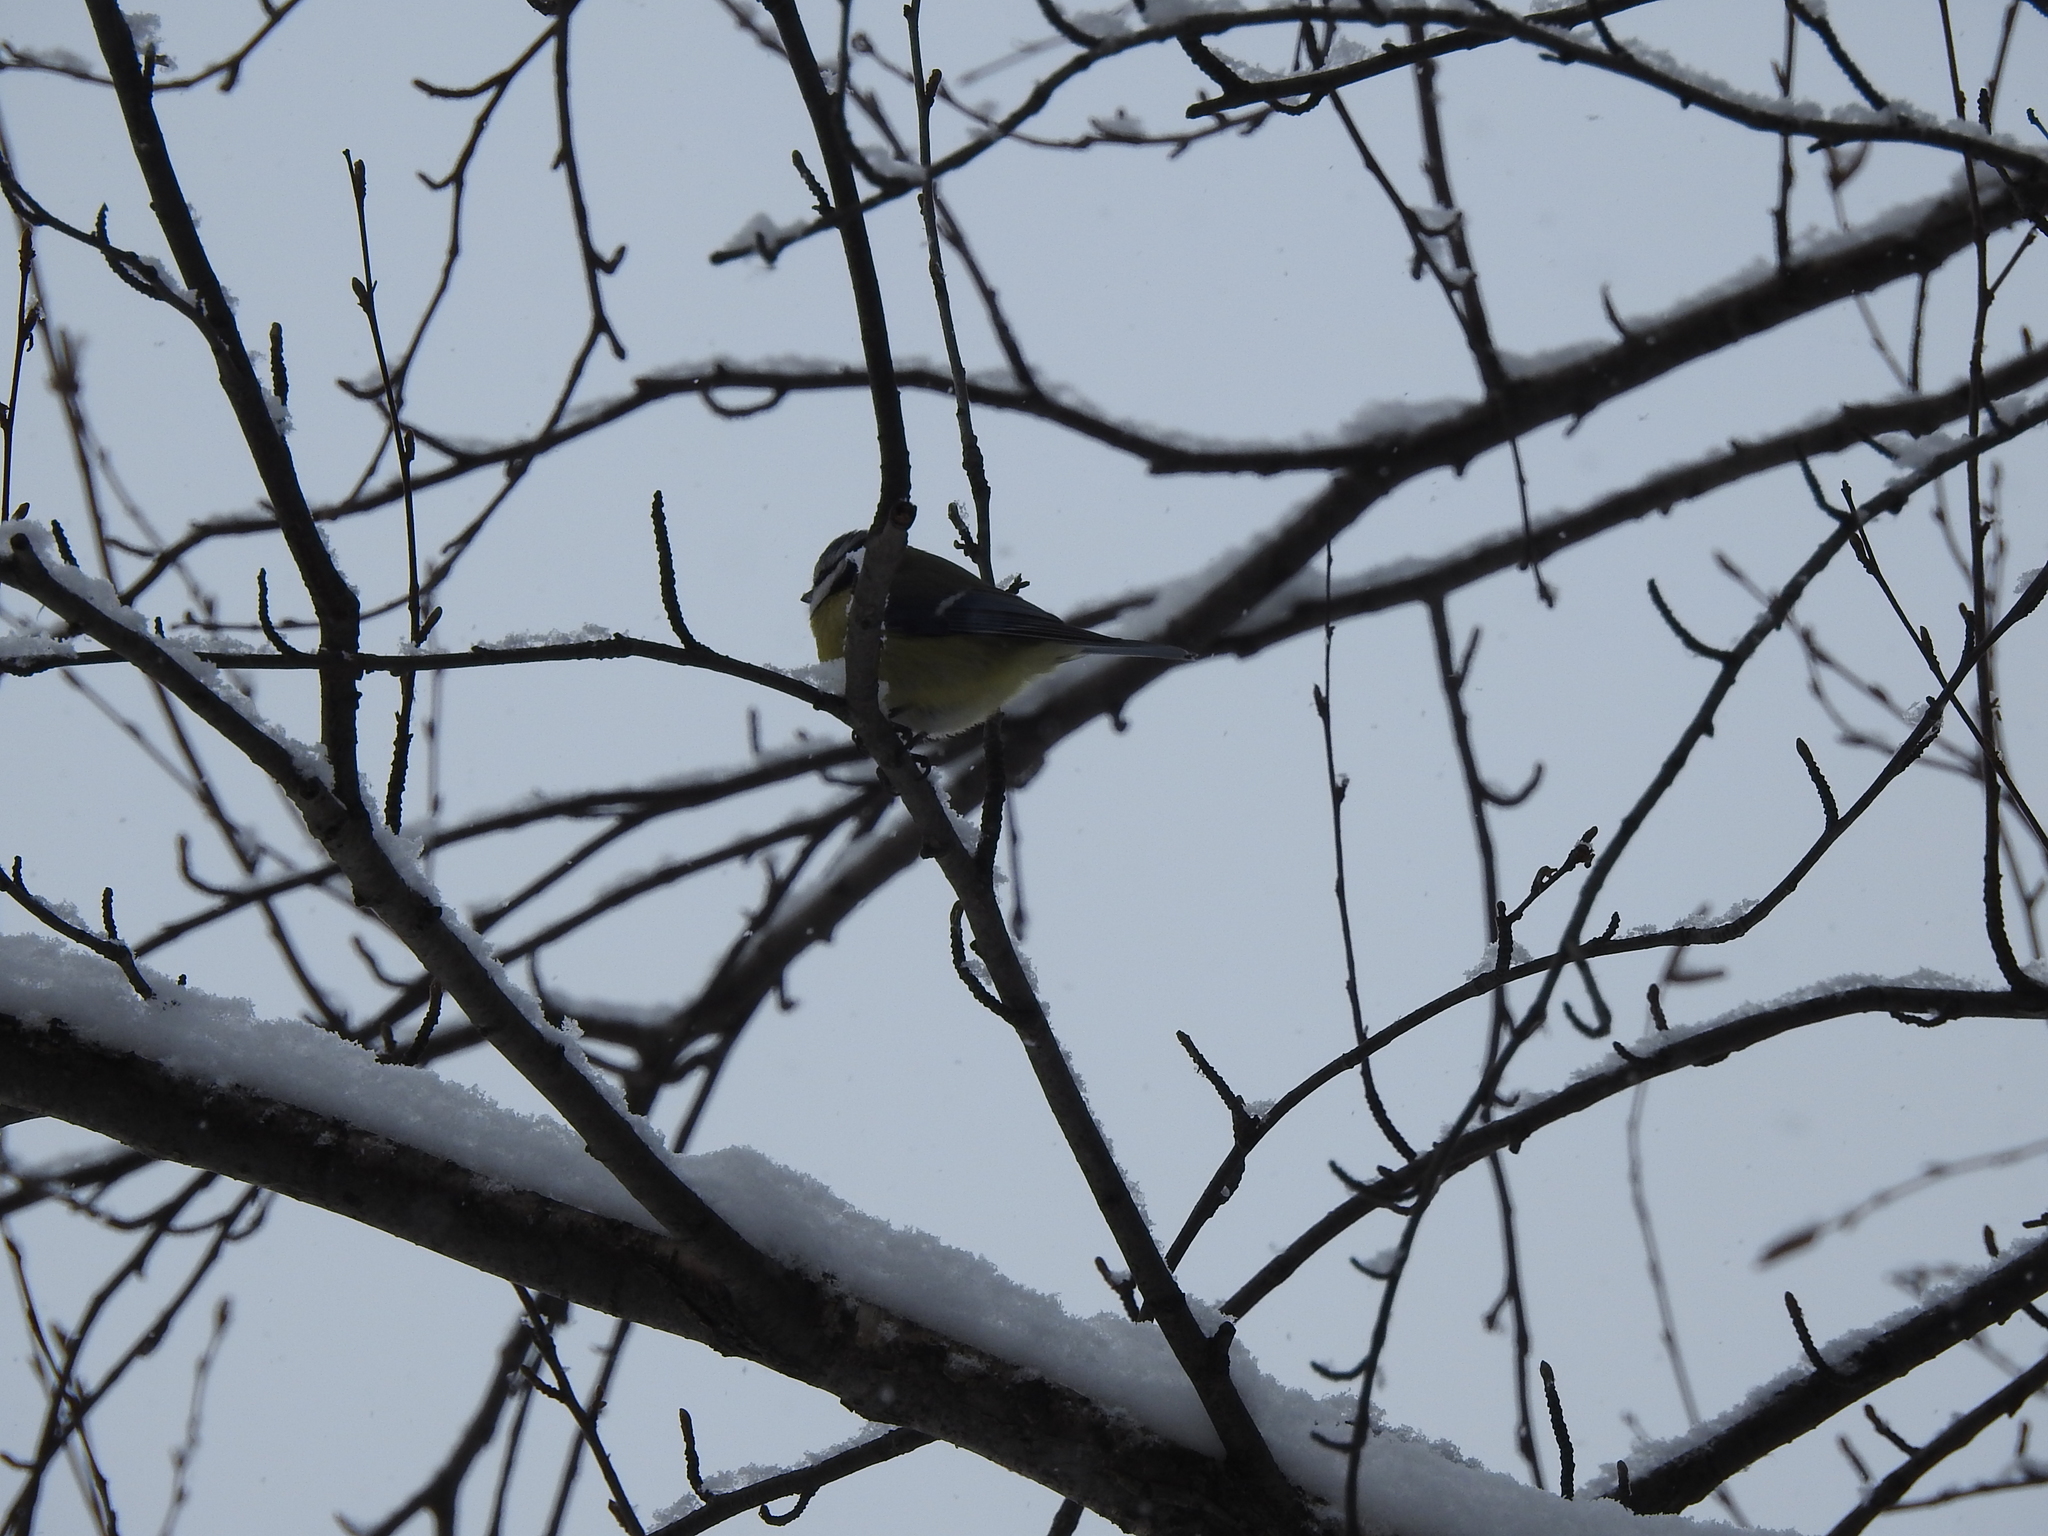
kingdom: Animalia
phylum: Chordata
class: Aves
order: Passeriformes
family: Paridae
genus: Cyanistes
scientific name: Cyanistes caeruleus
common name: Eurasian blue tit
